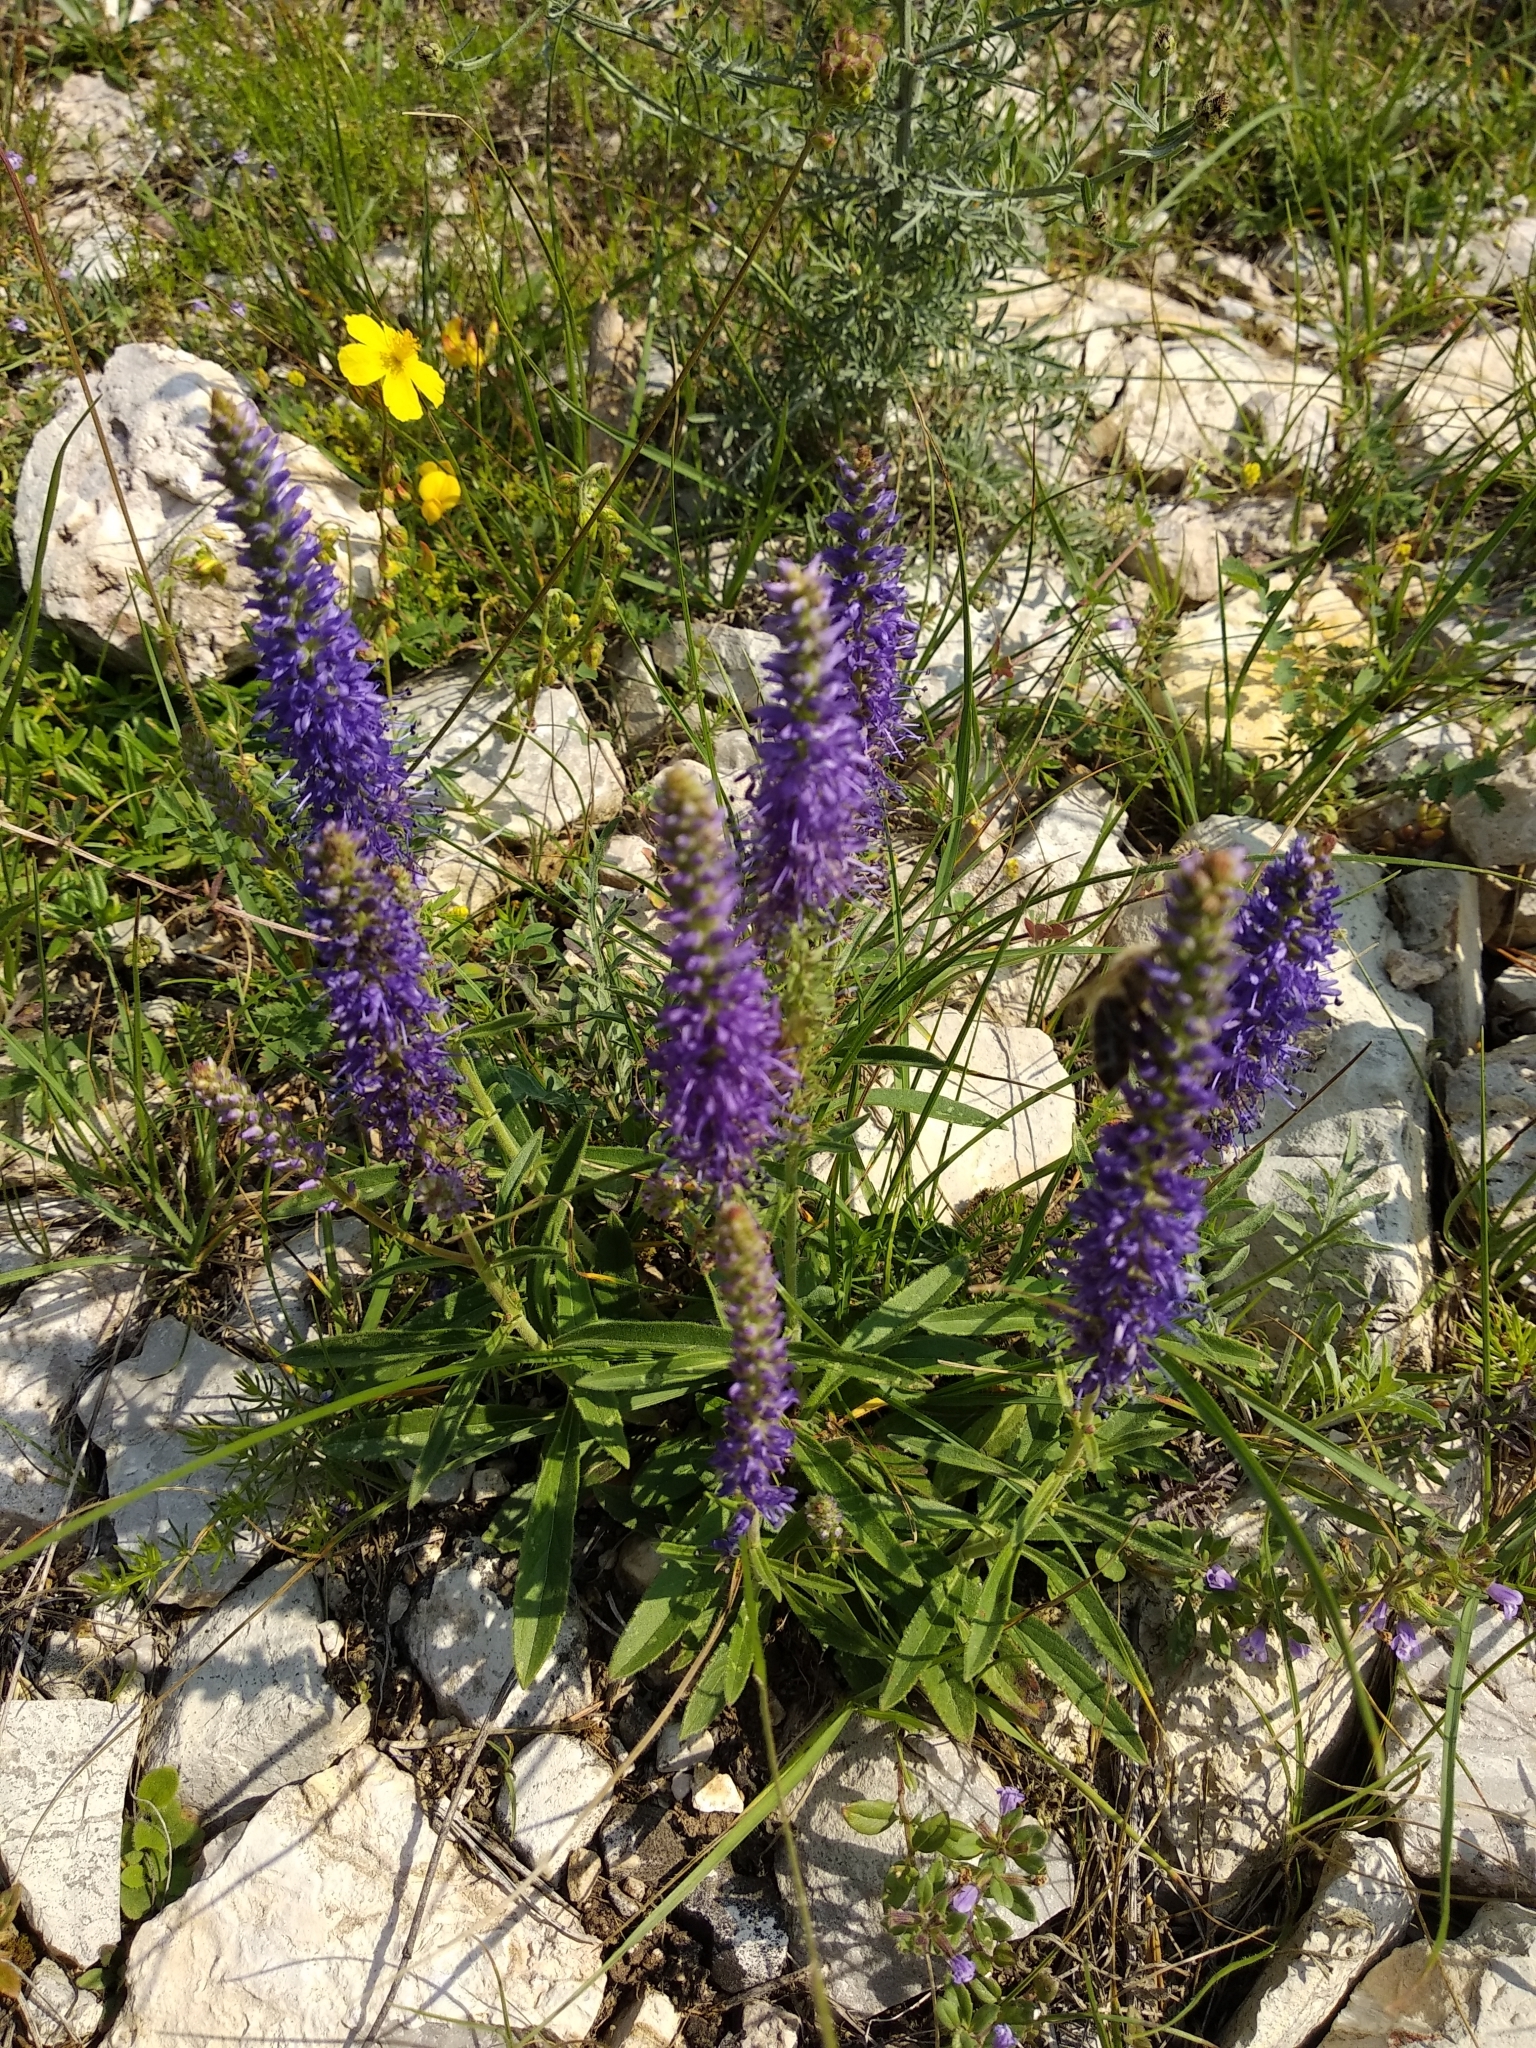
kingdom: Plantae
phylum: Tracheophyta
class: Magnoliopsida
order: Lamiales
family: Plantaginaceae
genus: Veronica
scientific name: Veronica spicata
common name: Spiked speedwell
